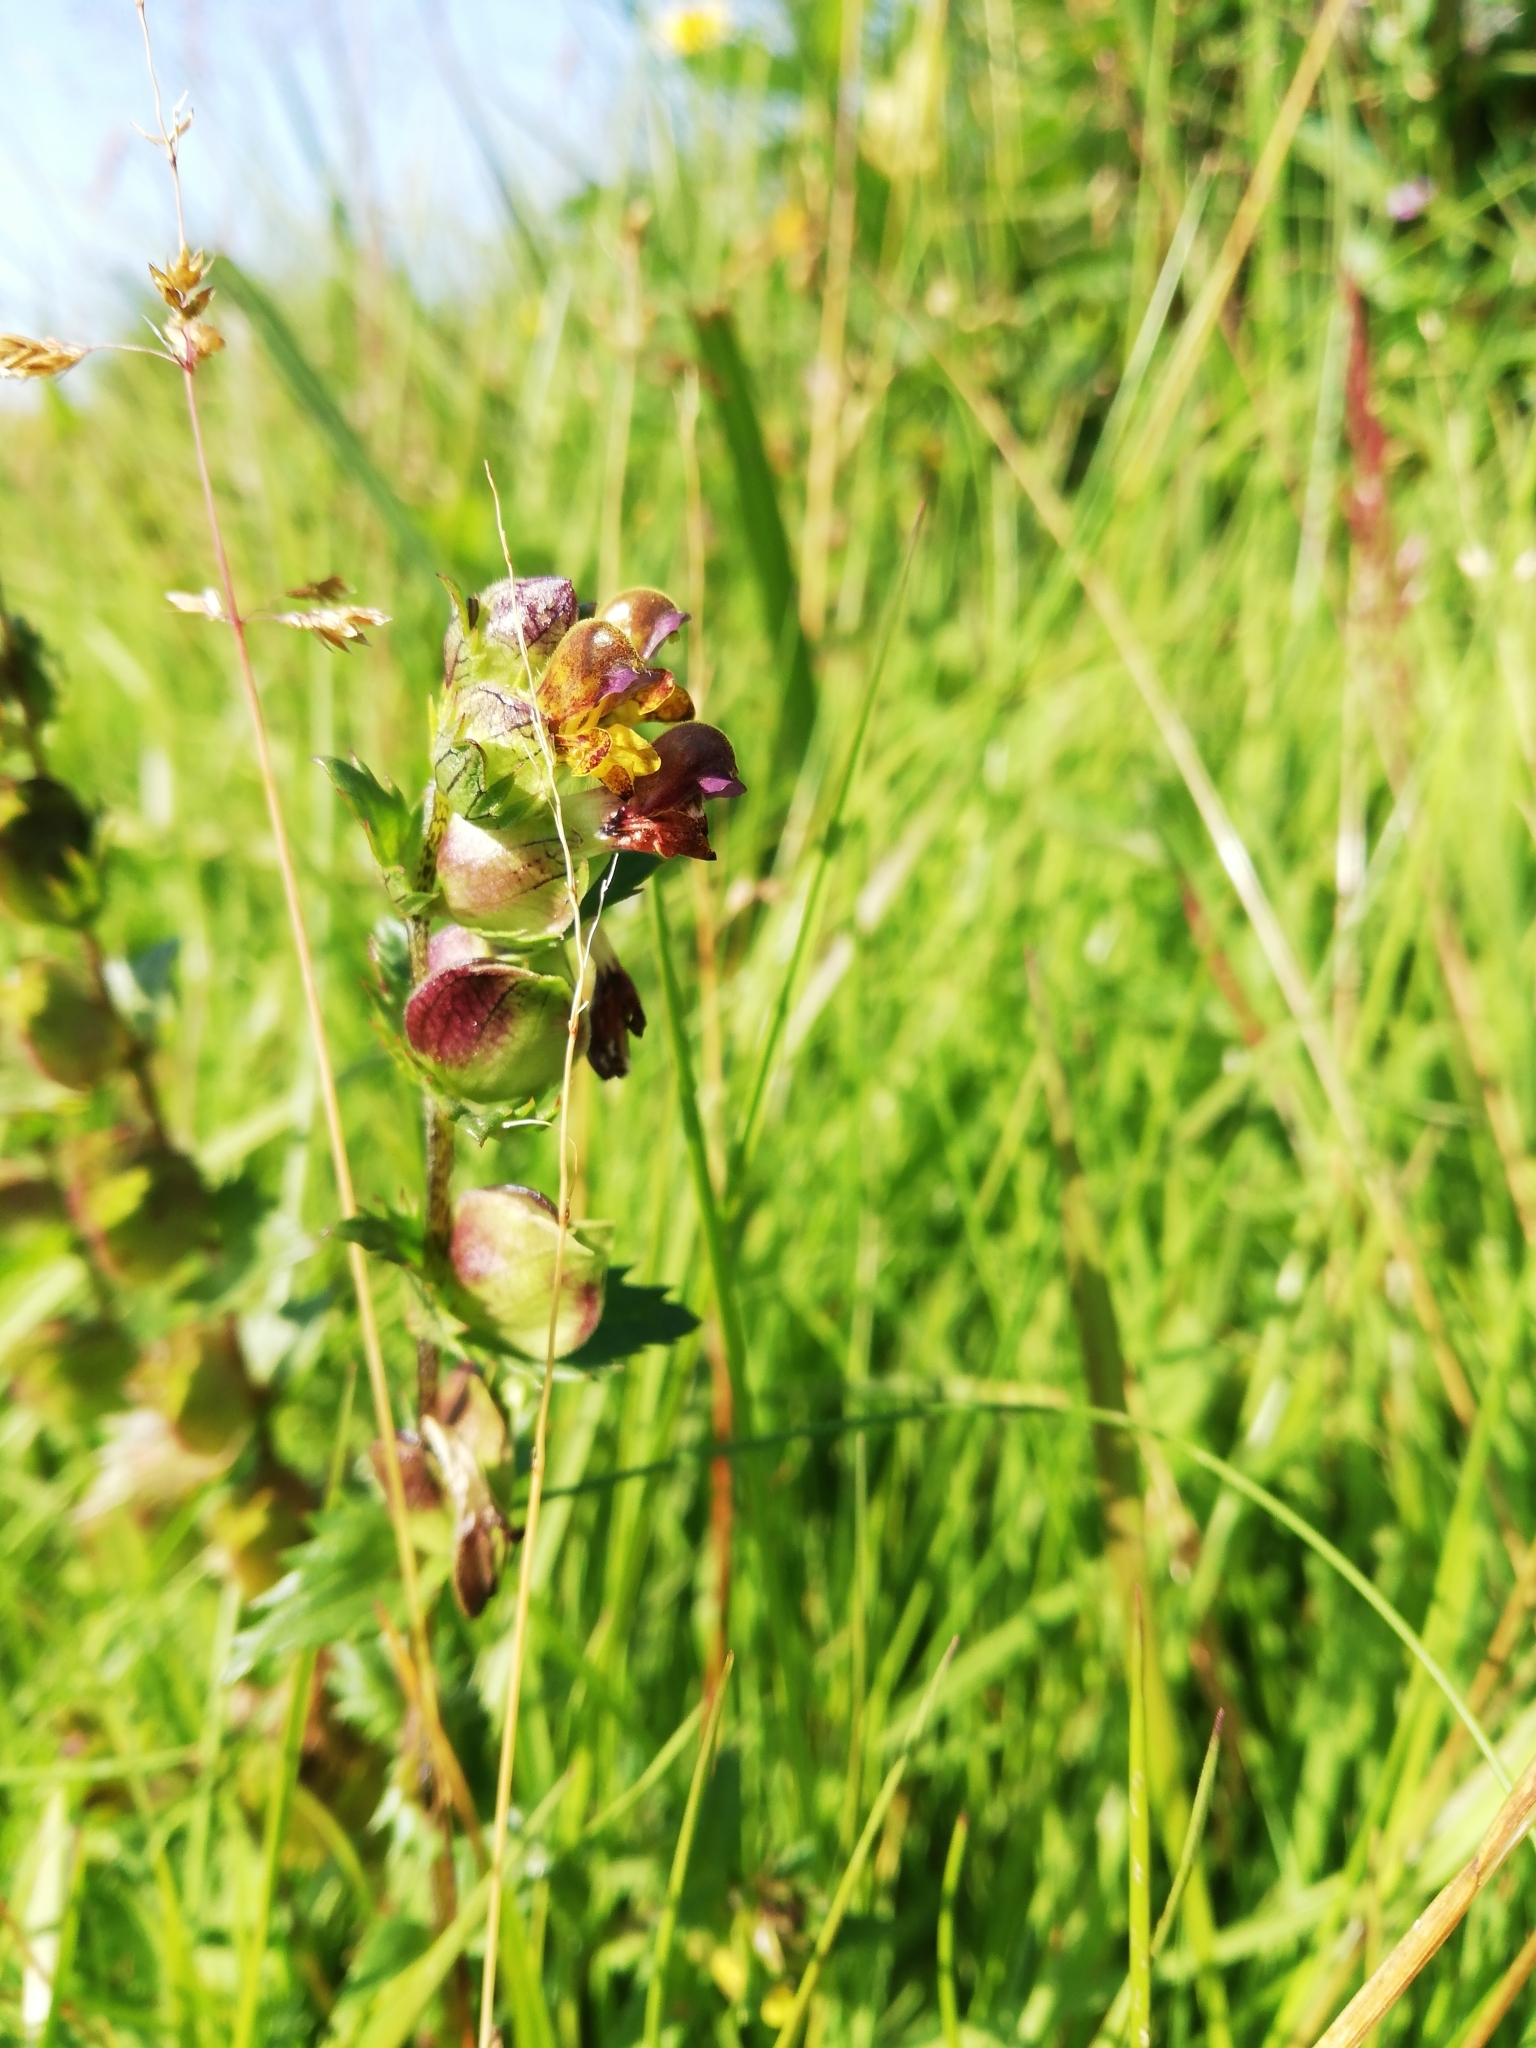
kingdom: Plantae
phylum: Tracheophyta
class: Magnoliopsida
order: Lamiales
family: Orobanchaceae
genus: Rhinanthus
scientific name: Rhinanthus minor
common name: Yellow-rattle
